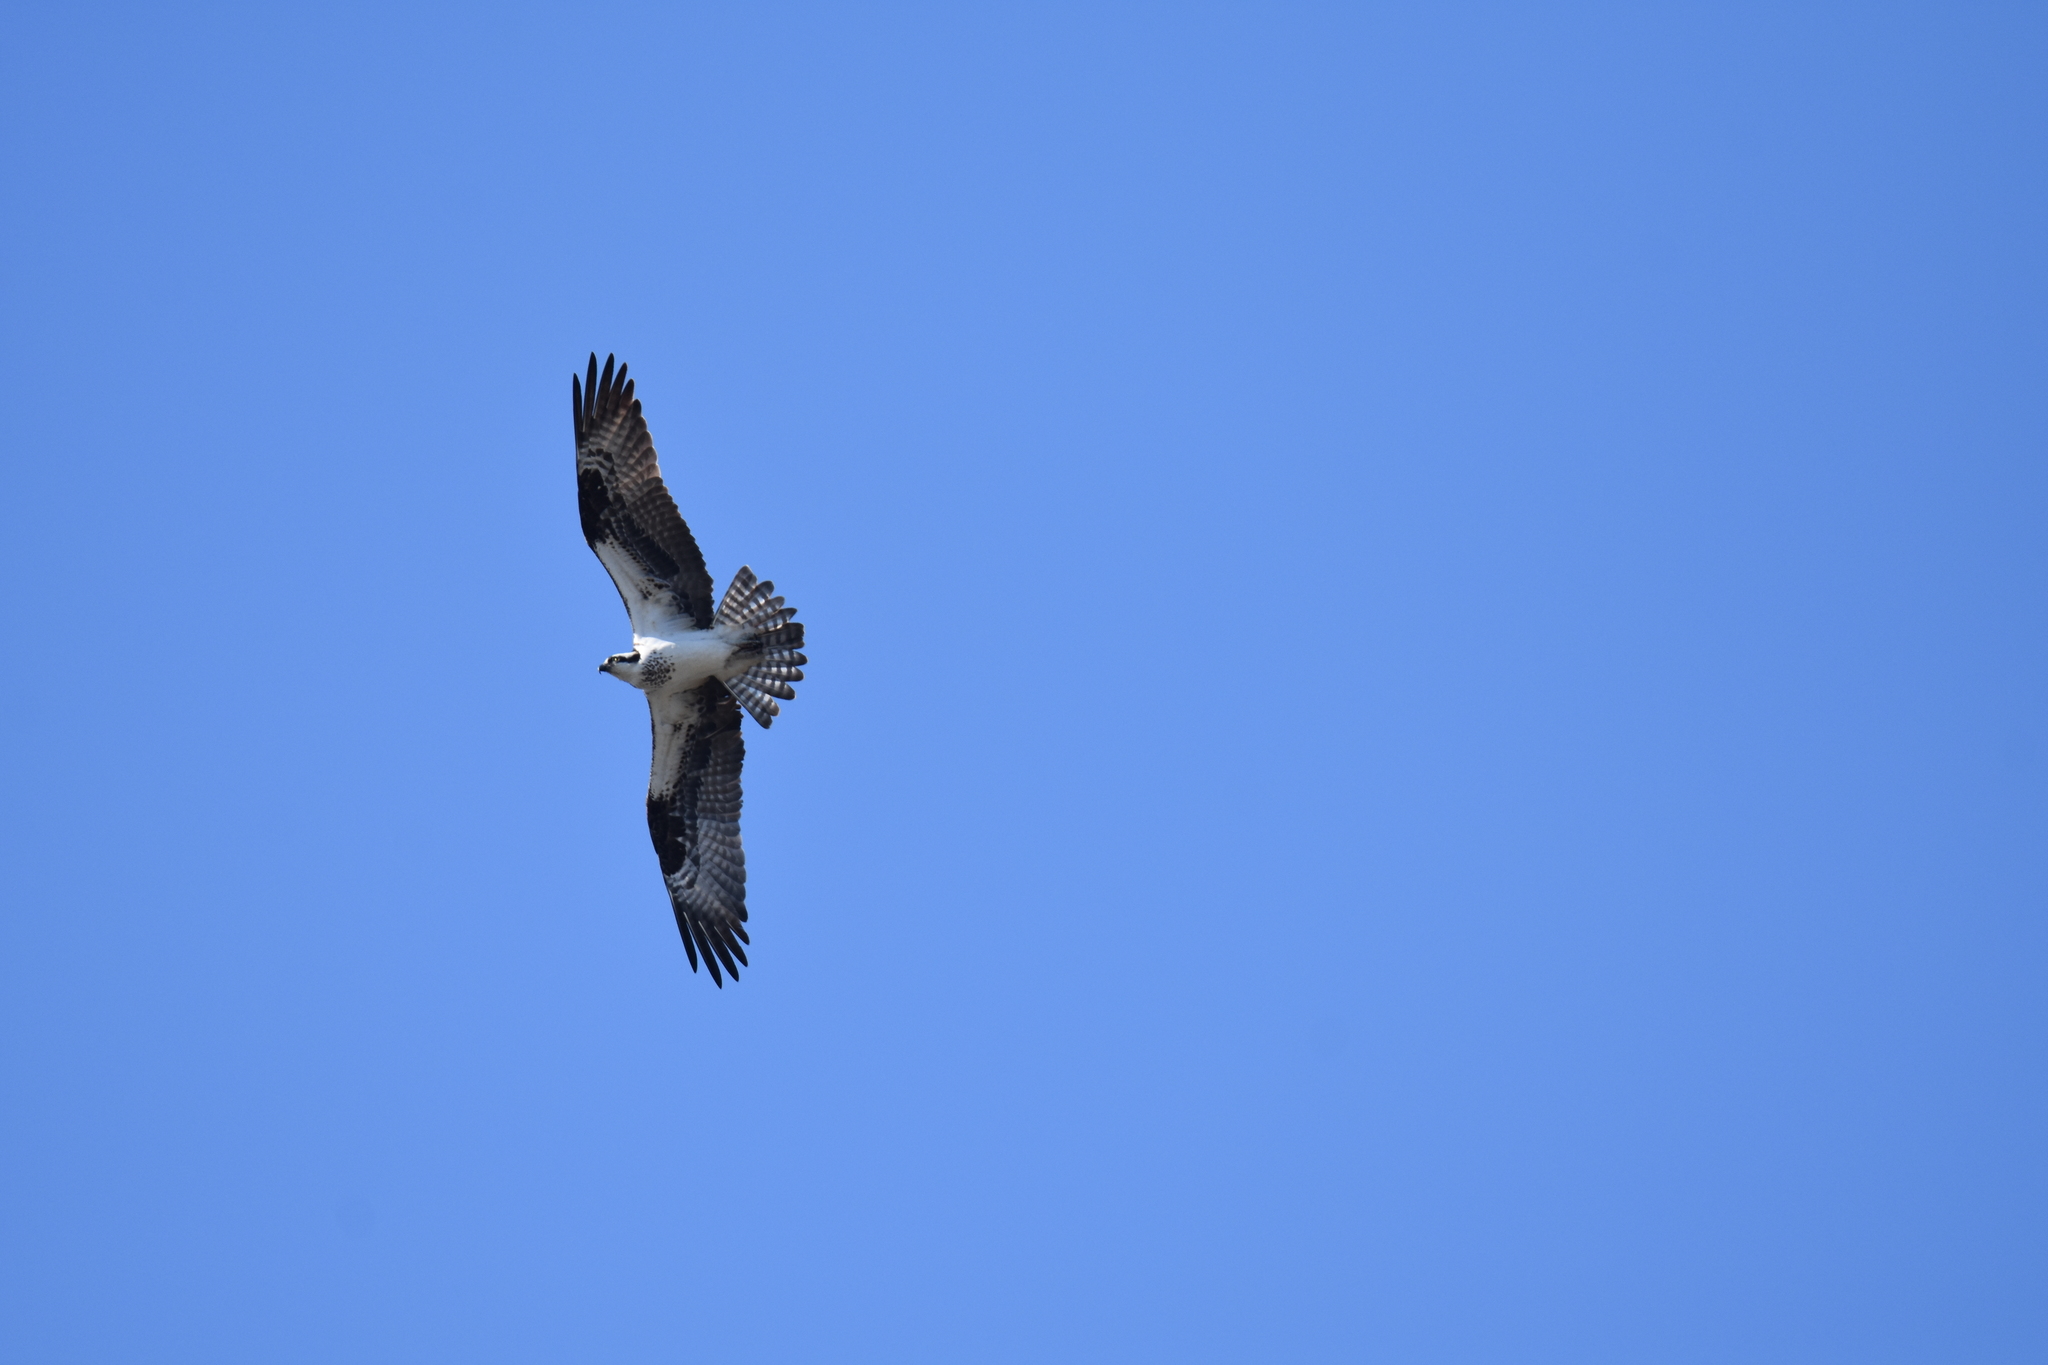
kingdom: Animalia
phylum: Chordata
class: Aves
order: Accipitriformes
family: Pandionidae
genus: Pandion
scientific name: Pandion haliaetus
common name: Osprey
